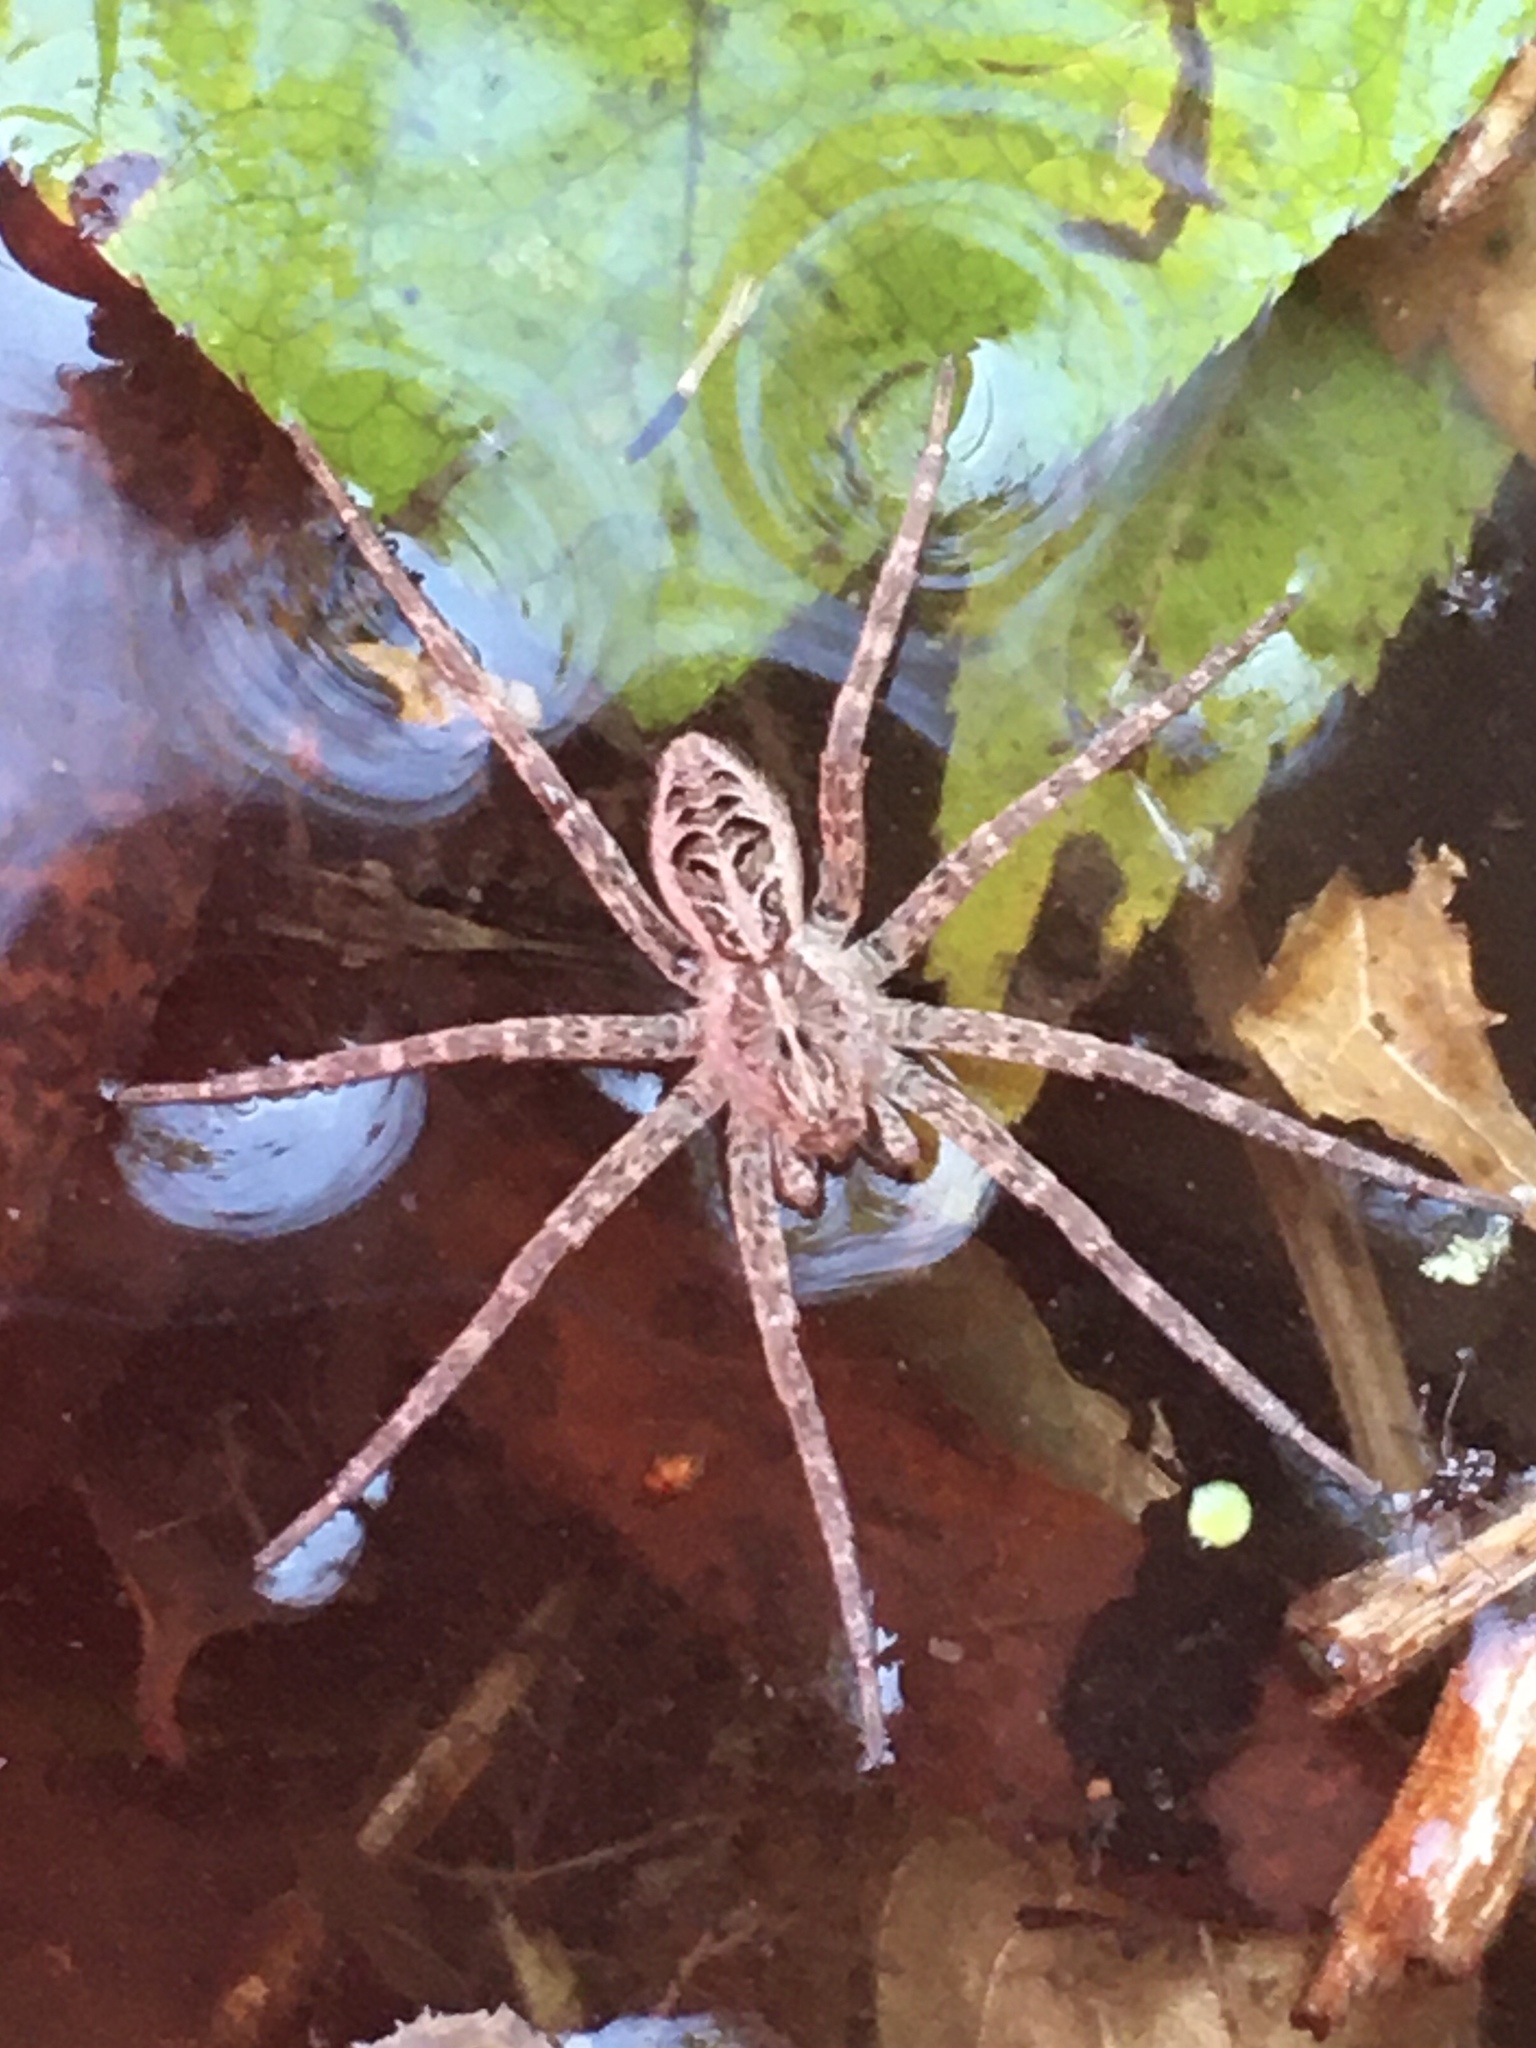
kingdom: Animalia
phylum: Arthropoda
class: Arachnida
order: Araneae
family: Pisauridae
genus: Dolomedes
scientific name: Dolomedes scriptus
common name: Striped fishing spider
